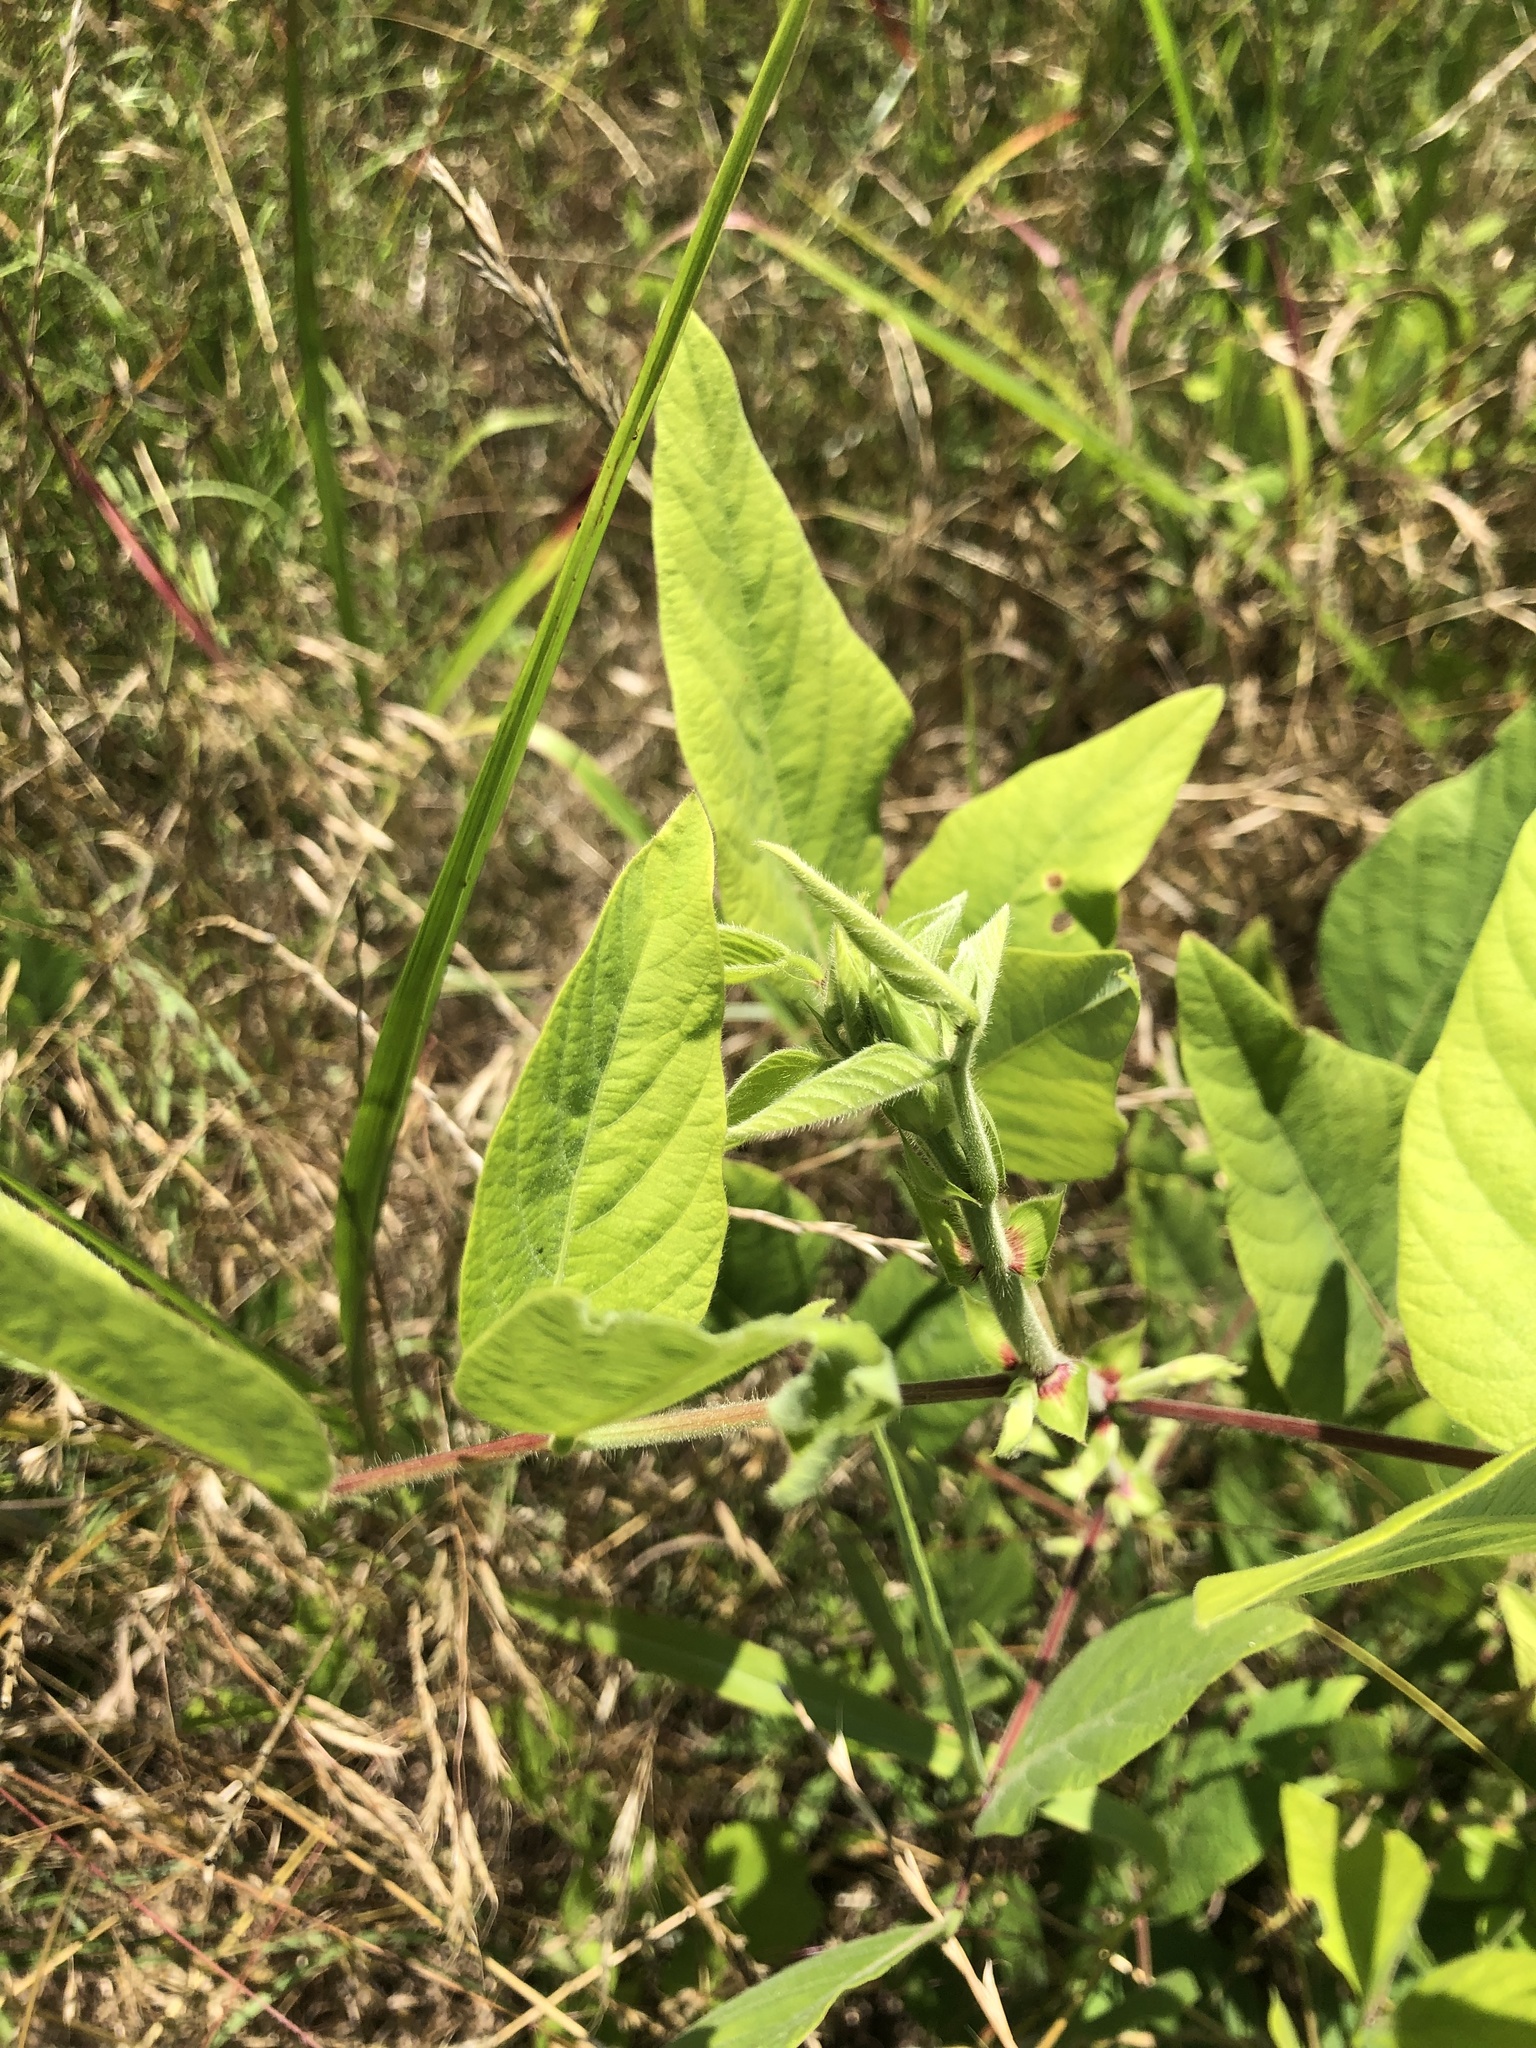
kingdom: Plantae
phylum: Tracheophyta
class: Magnoliopsida
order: Fabales
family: Fabaceae
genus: Desmodium
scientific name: Desmodium canescens
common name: Hoary tick-clover
